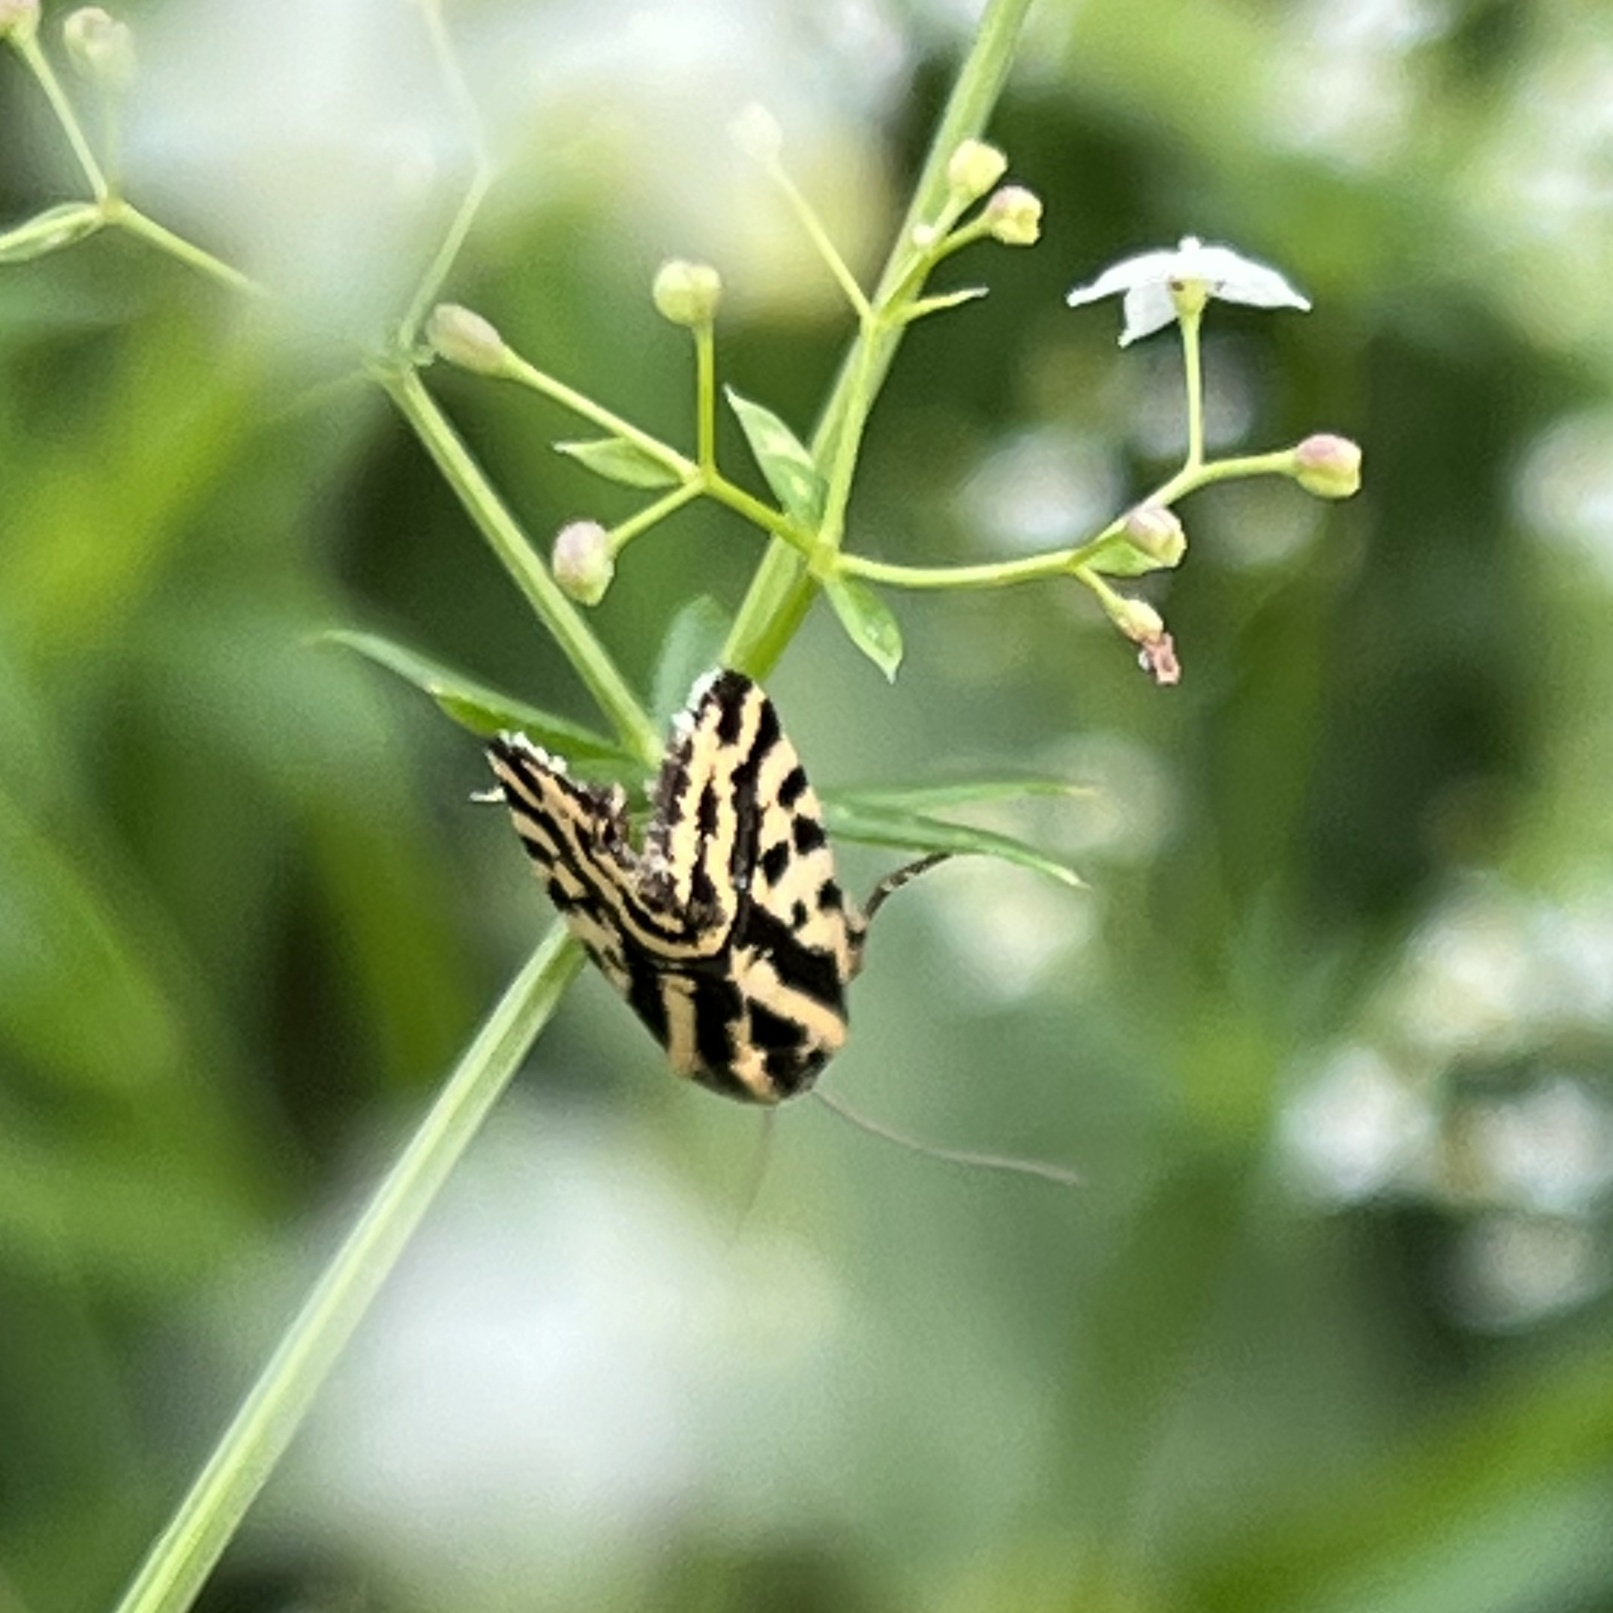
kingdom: Animalia
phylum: Arthropoda
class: Insecta
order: Lepidoptera
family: Noctuidae
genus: Acontia
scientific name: Acontia trabealis
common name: Spotted sulphur
